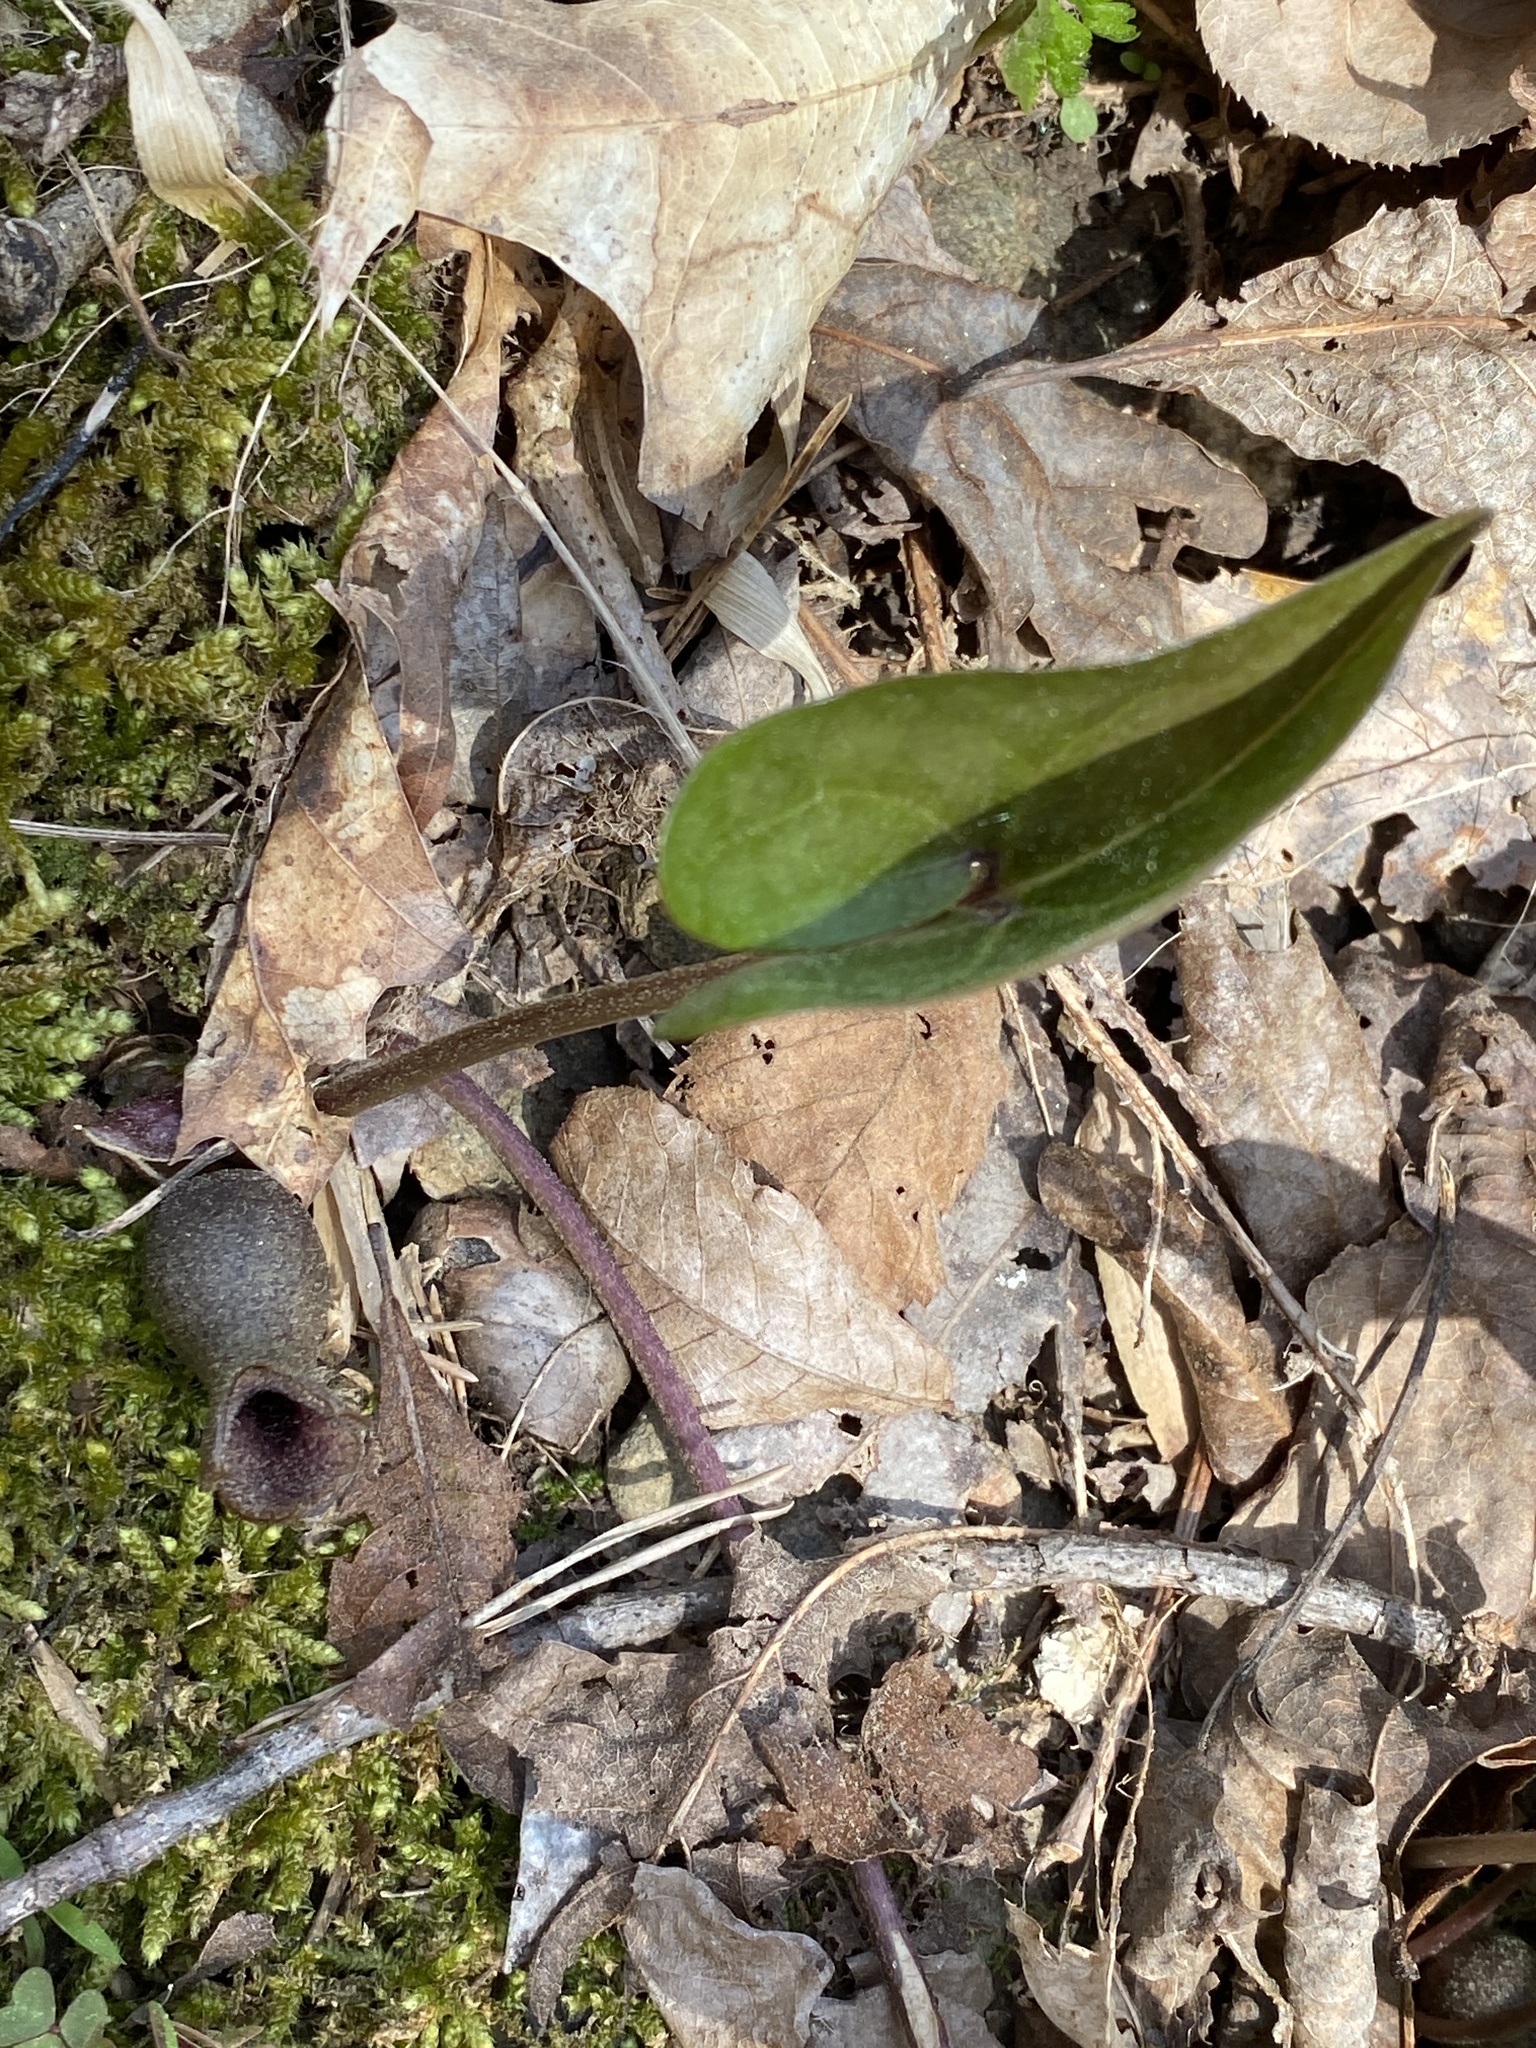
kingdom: Plantae
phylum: Tracheophyta
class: Magnoliopsida
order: Piperales
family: Aristolochiaceae
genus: Hexastylis
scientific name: Hexastylis arifolia
